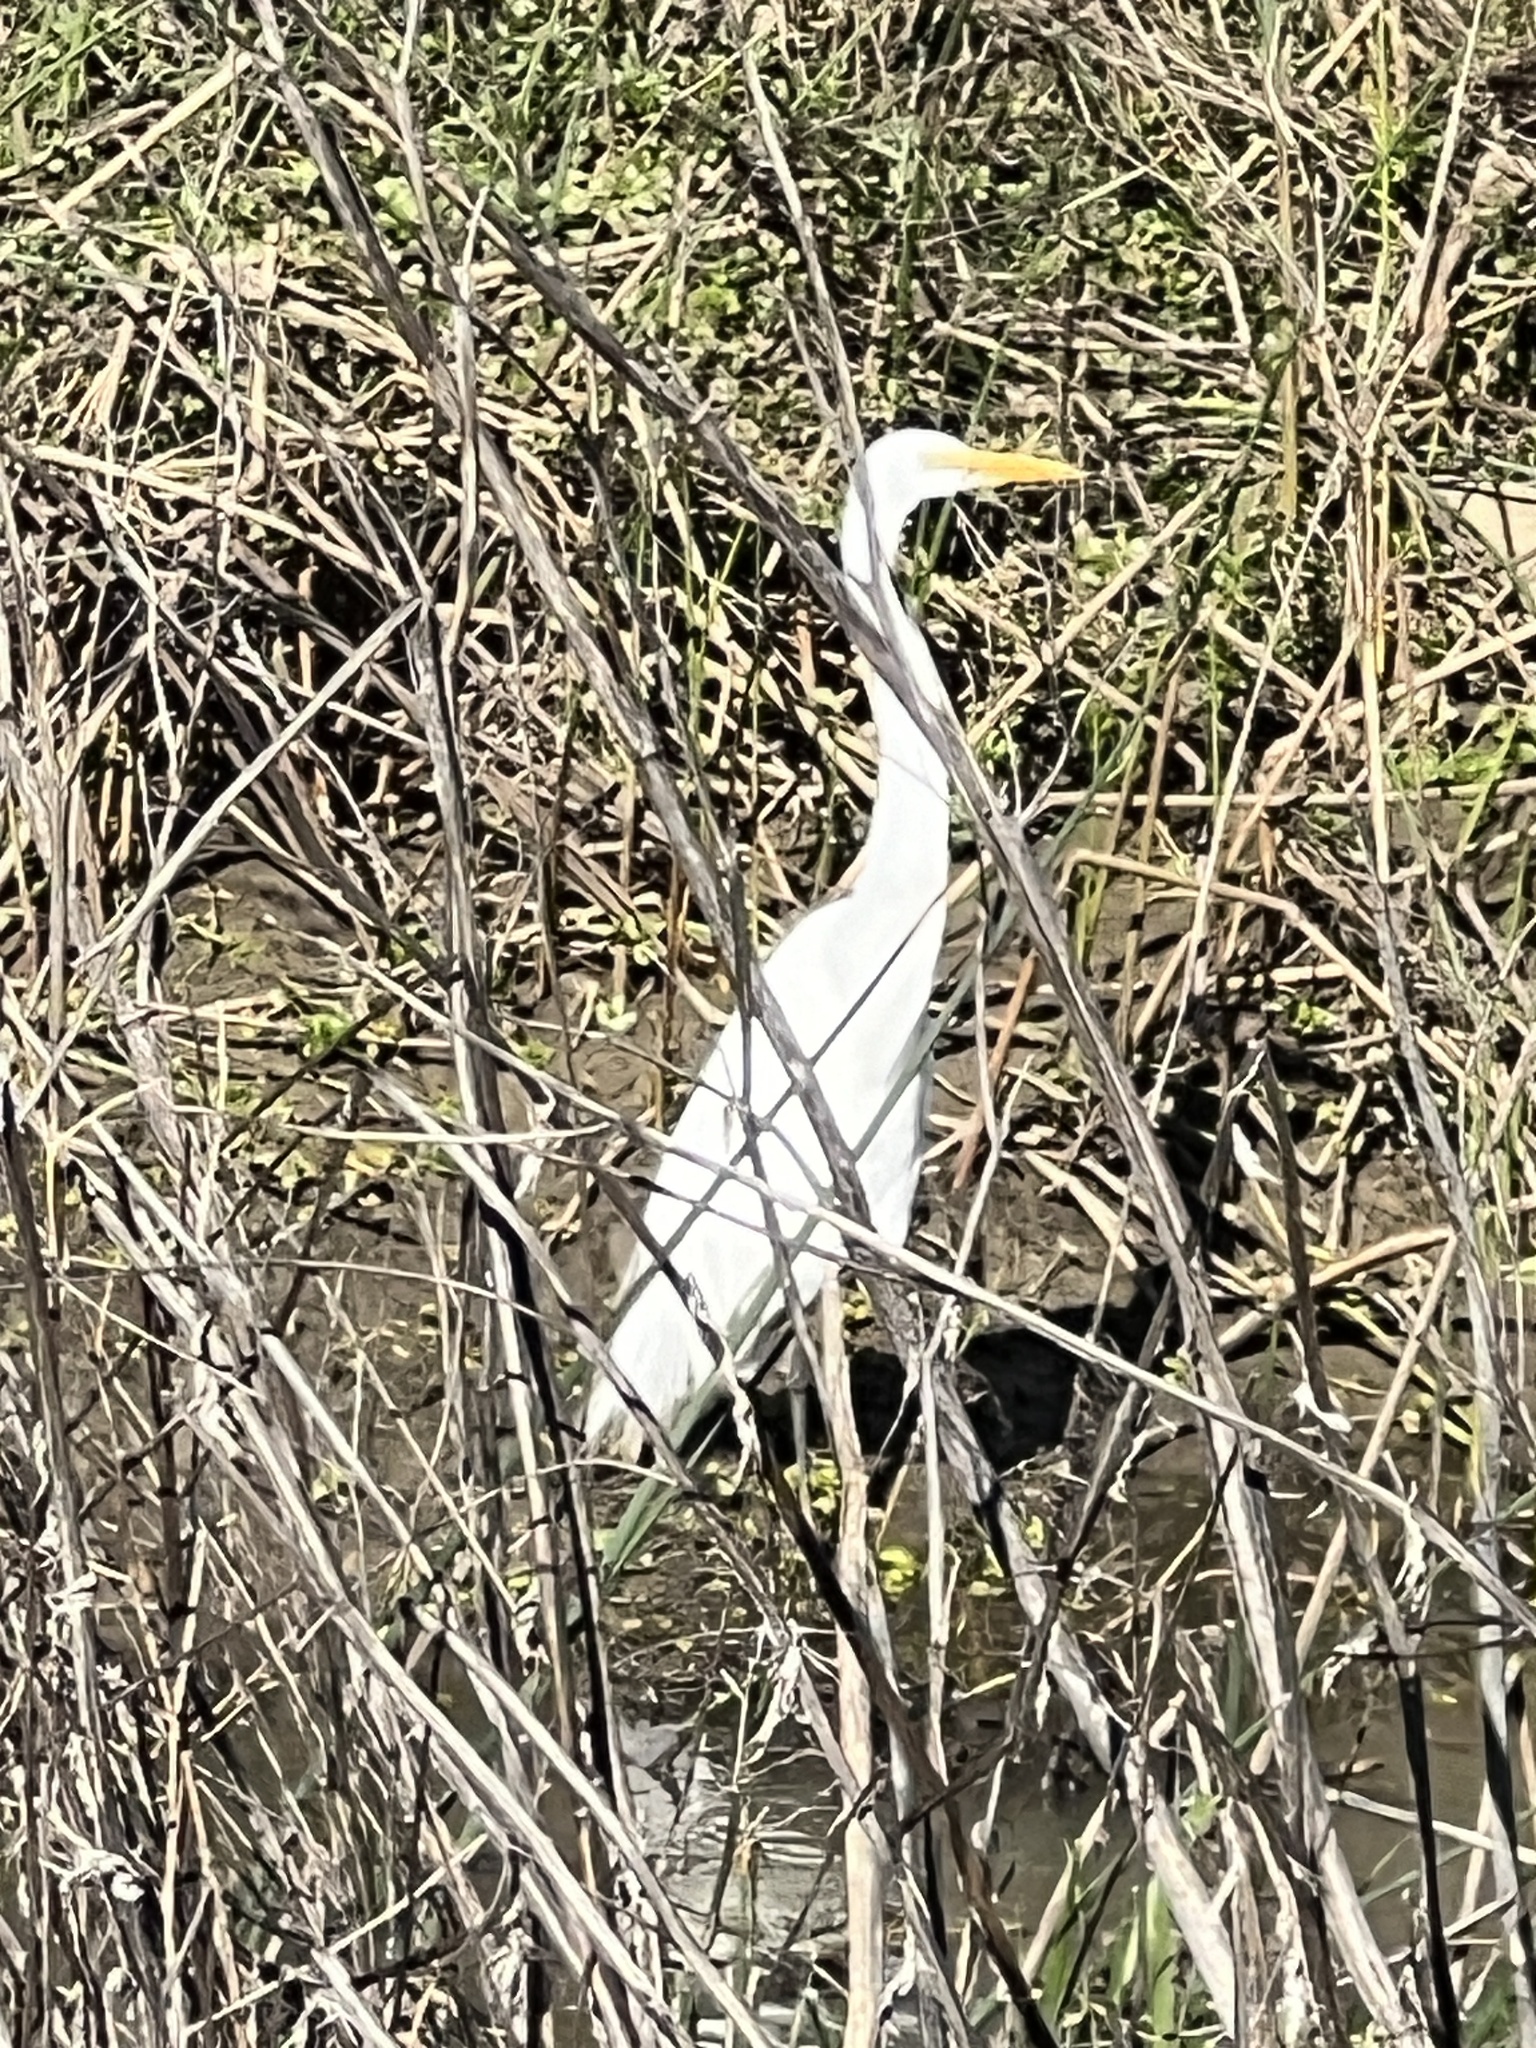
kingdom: Animalia
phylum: Chordata
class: Aves
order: Pelecaniformes
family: Ardeidae
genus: Ardea
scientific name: Ardea alba
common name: Great egret
